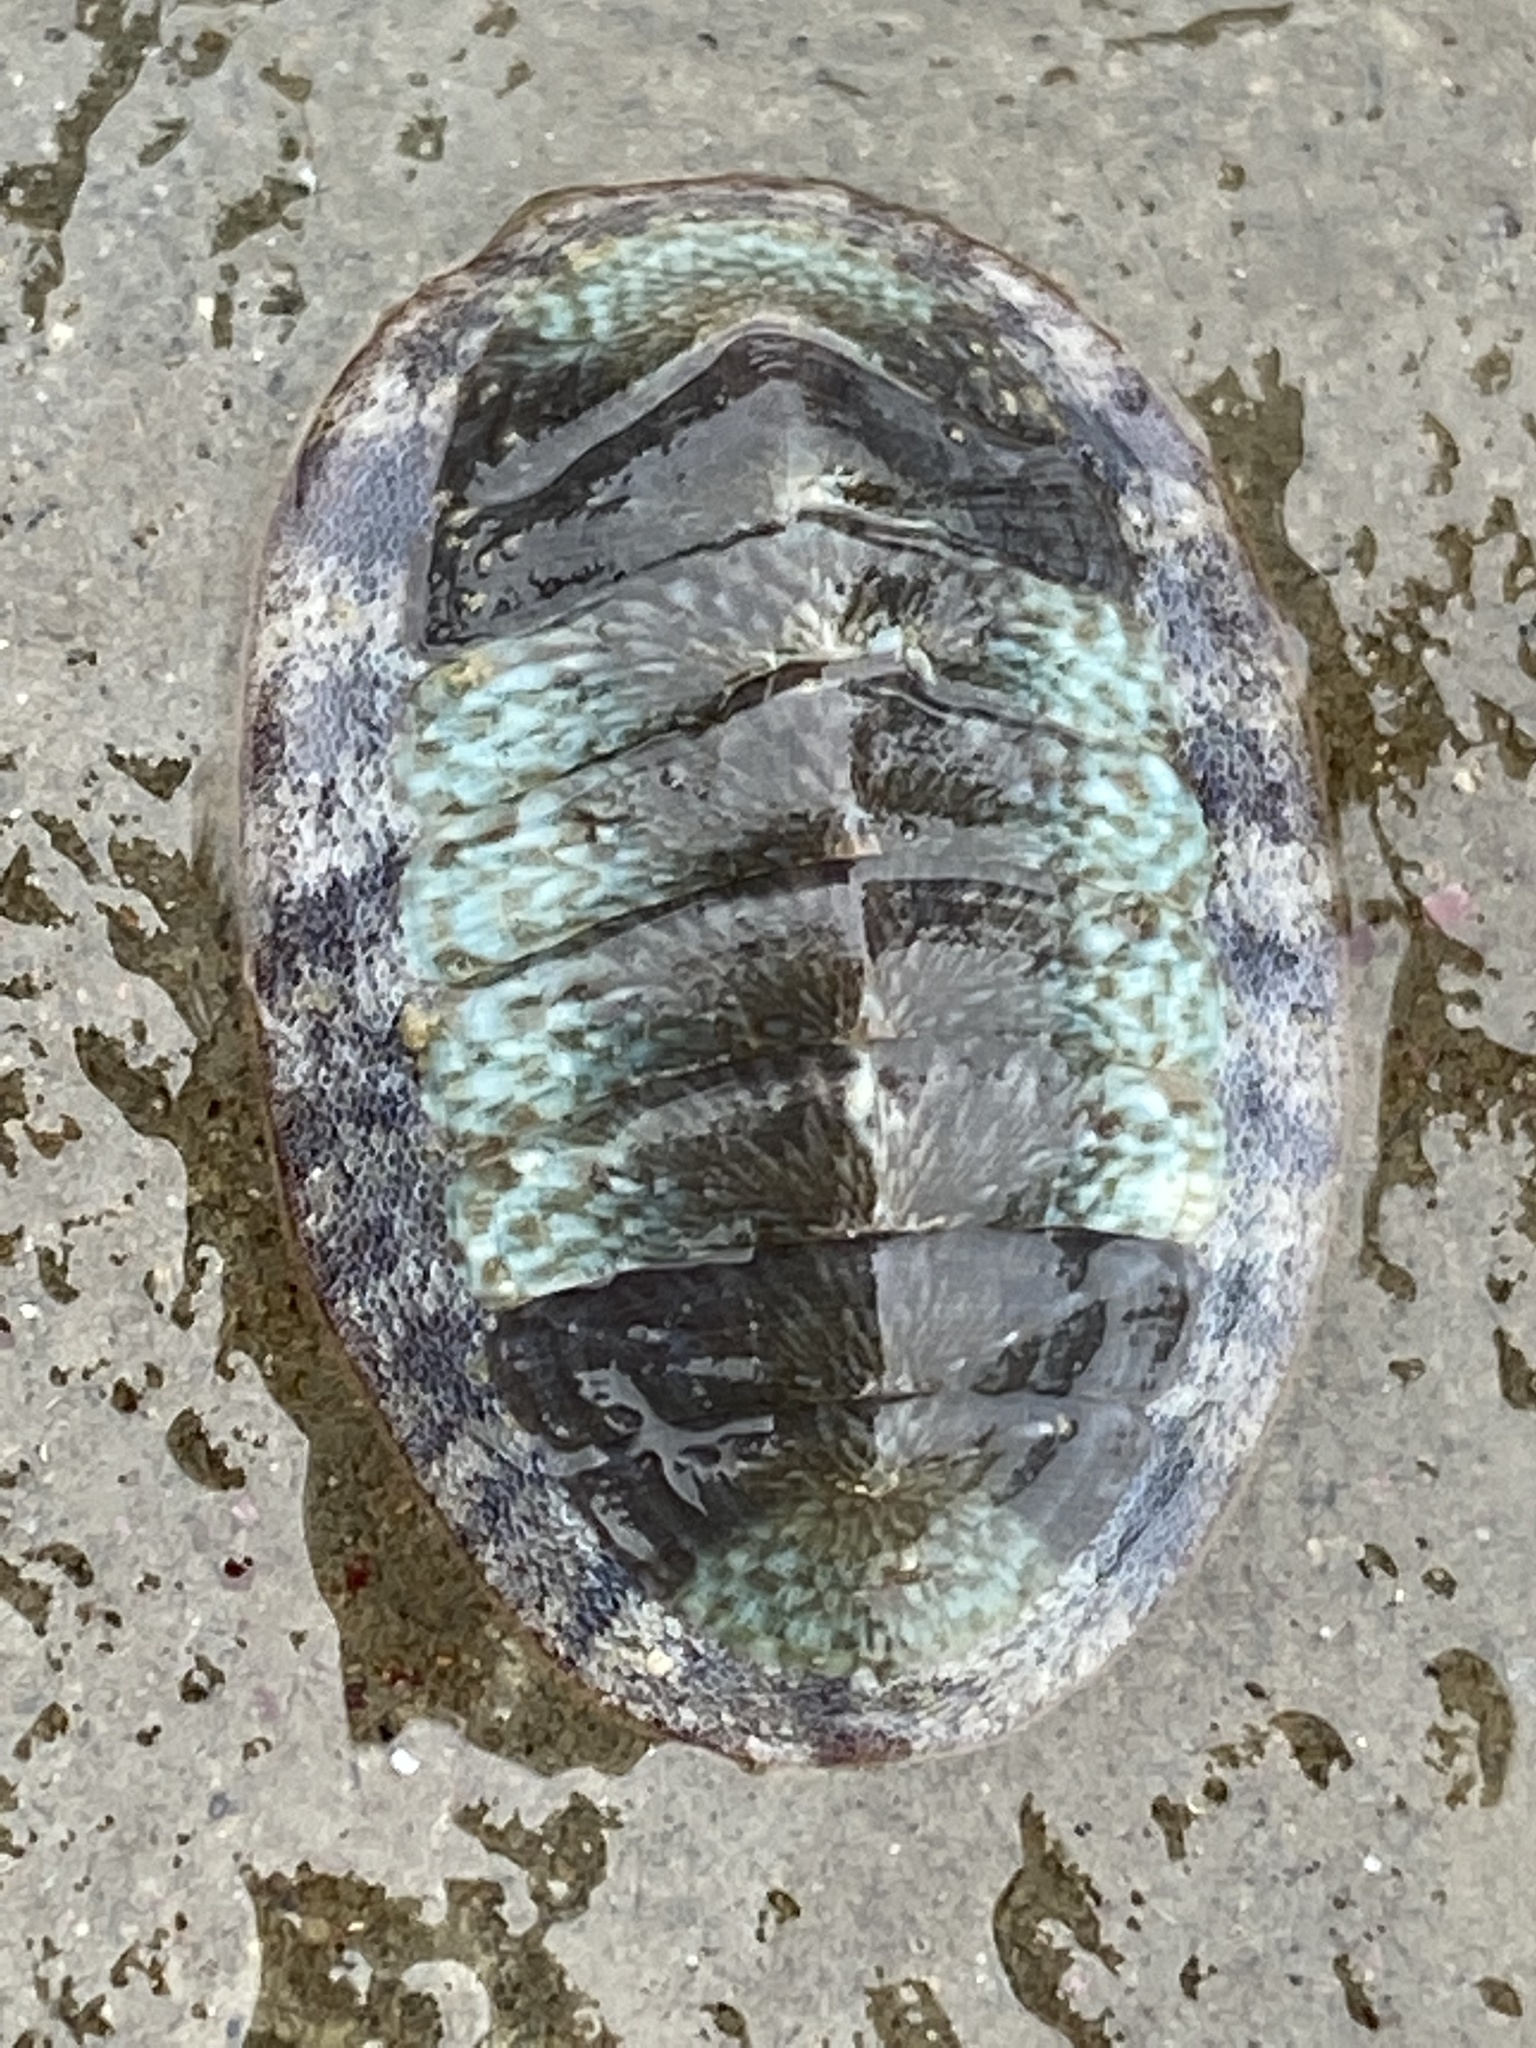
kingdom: Animalia
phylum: Mollusca
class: Polyplacophora
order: Chitonida
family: Ischnochitonidae
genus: Lepidozona
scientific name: Lepidozona radians
